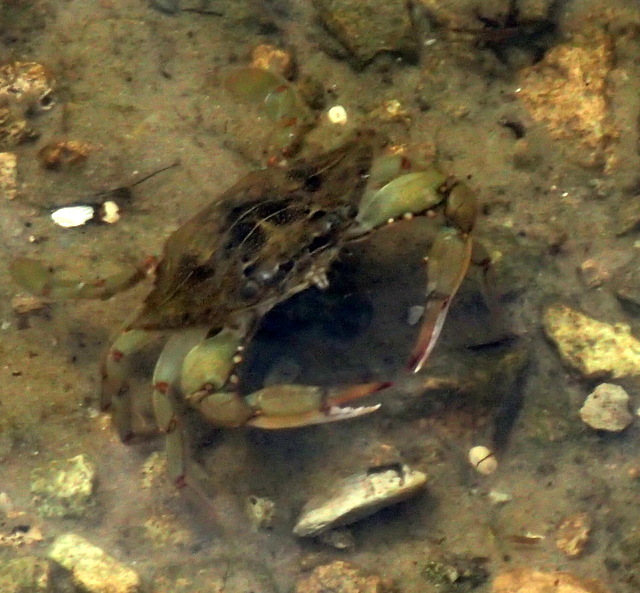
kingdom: Animalia
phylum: Arthropoda
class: Malacostraca
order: Decapoda
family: Portunidae
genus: Callinectes
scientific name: Callinectes sapidus
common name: Blue crab
